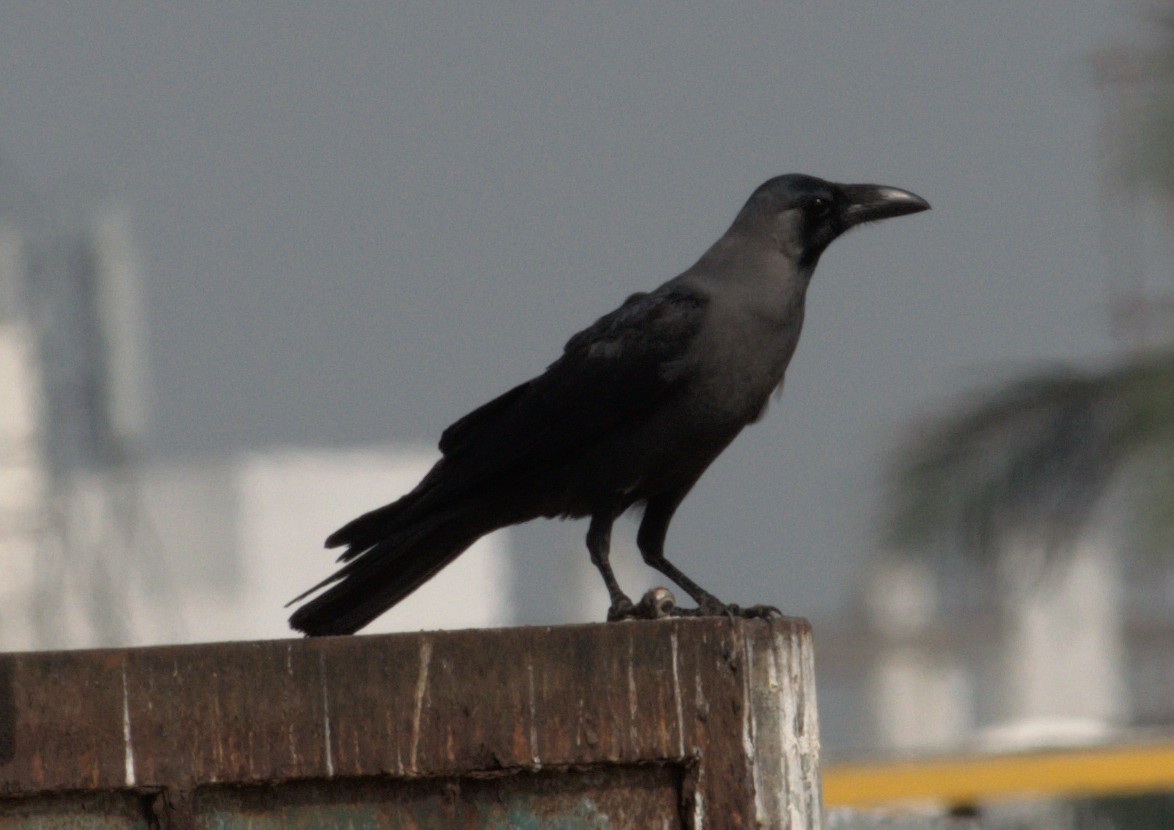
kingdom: Animalia
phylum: Chordata
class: Aves
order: Passeriformes
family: Corvidae
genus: Corvus
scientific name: Corvus splendens
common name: House crow
